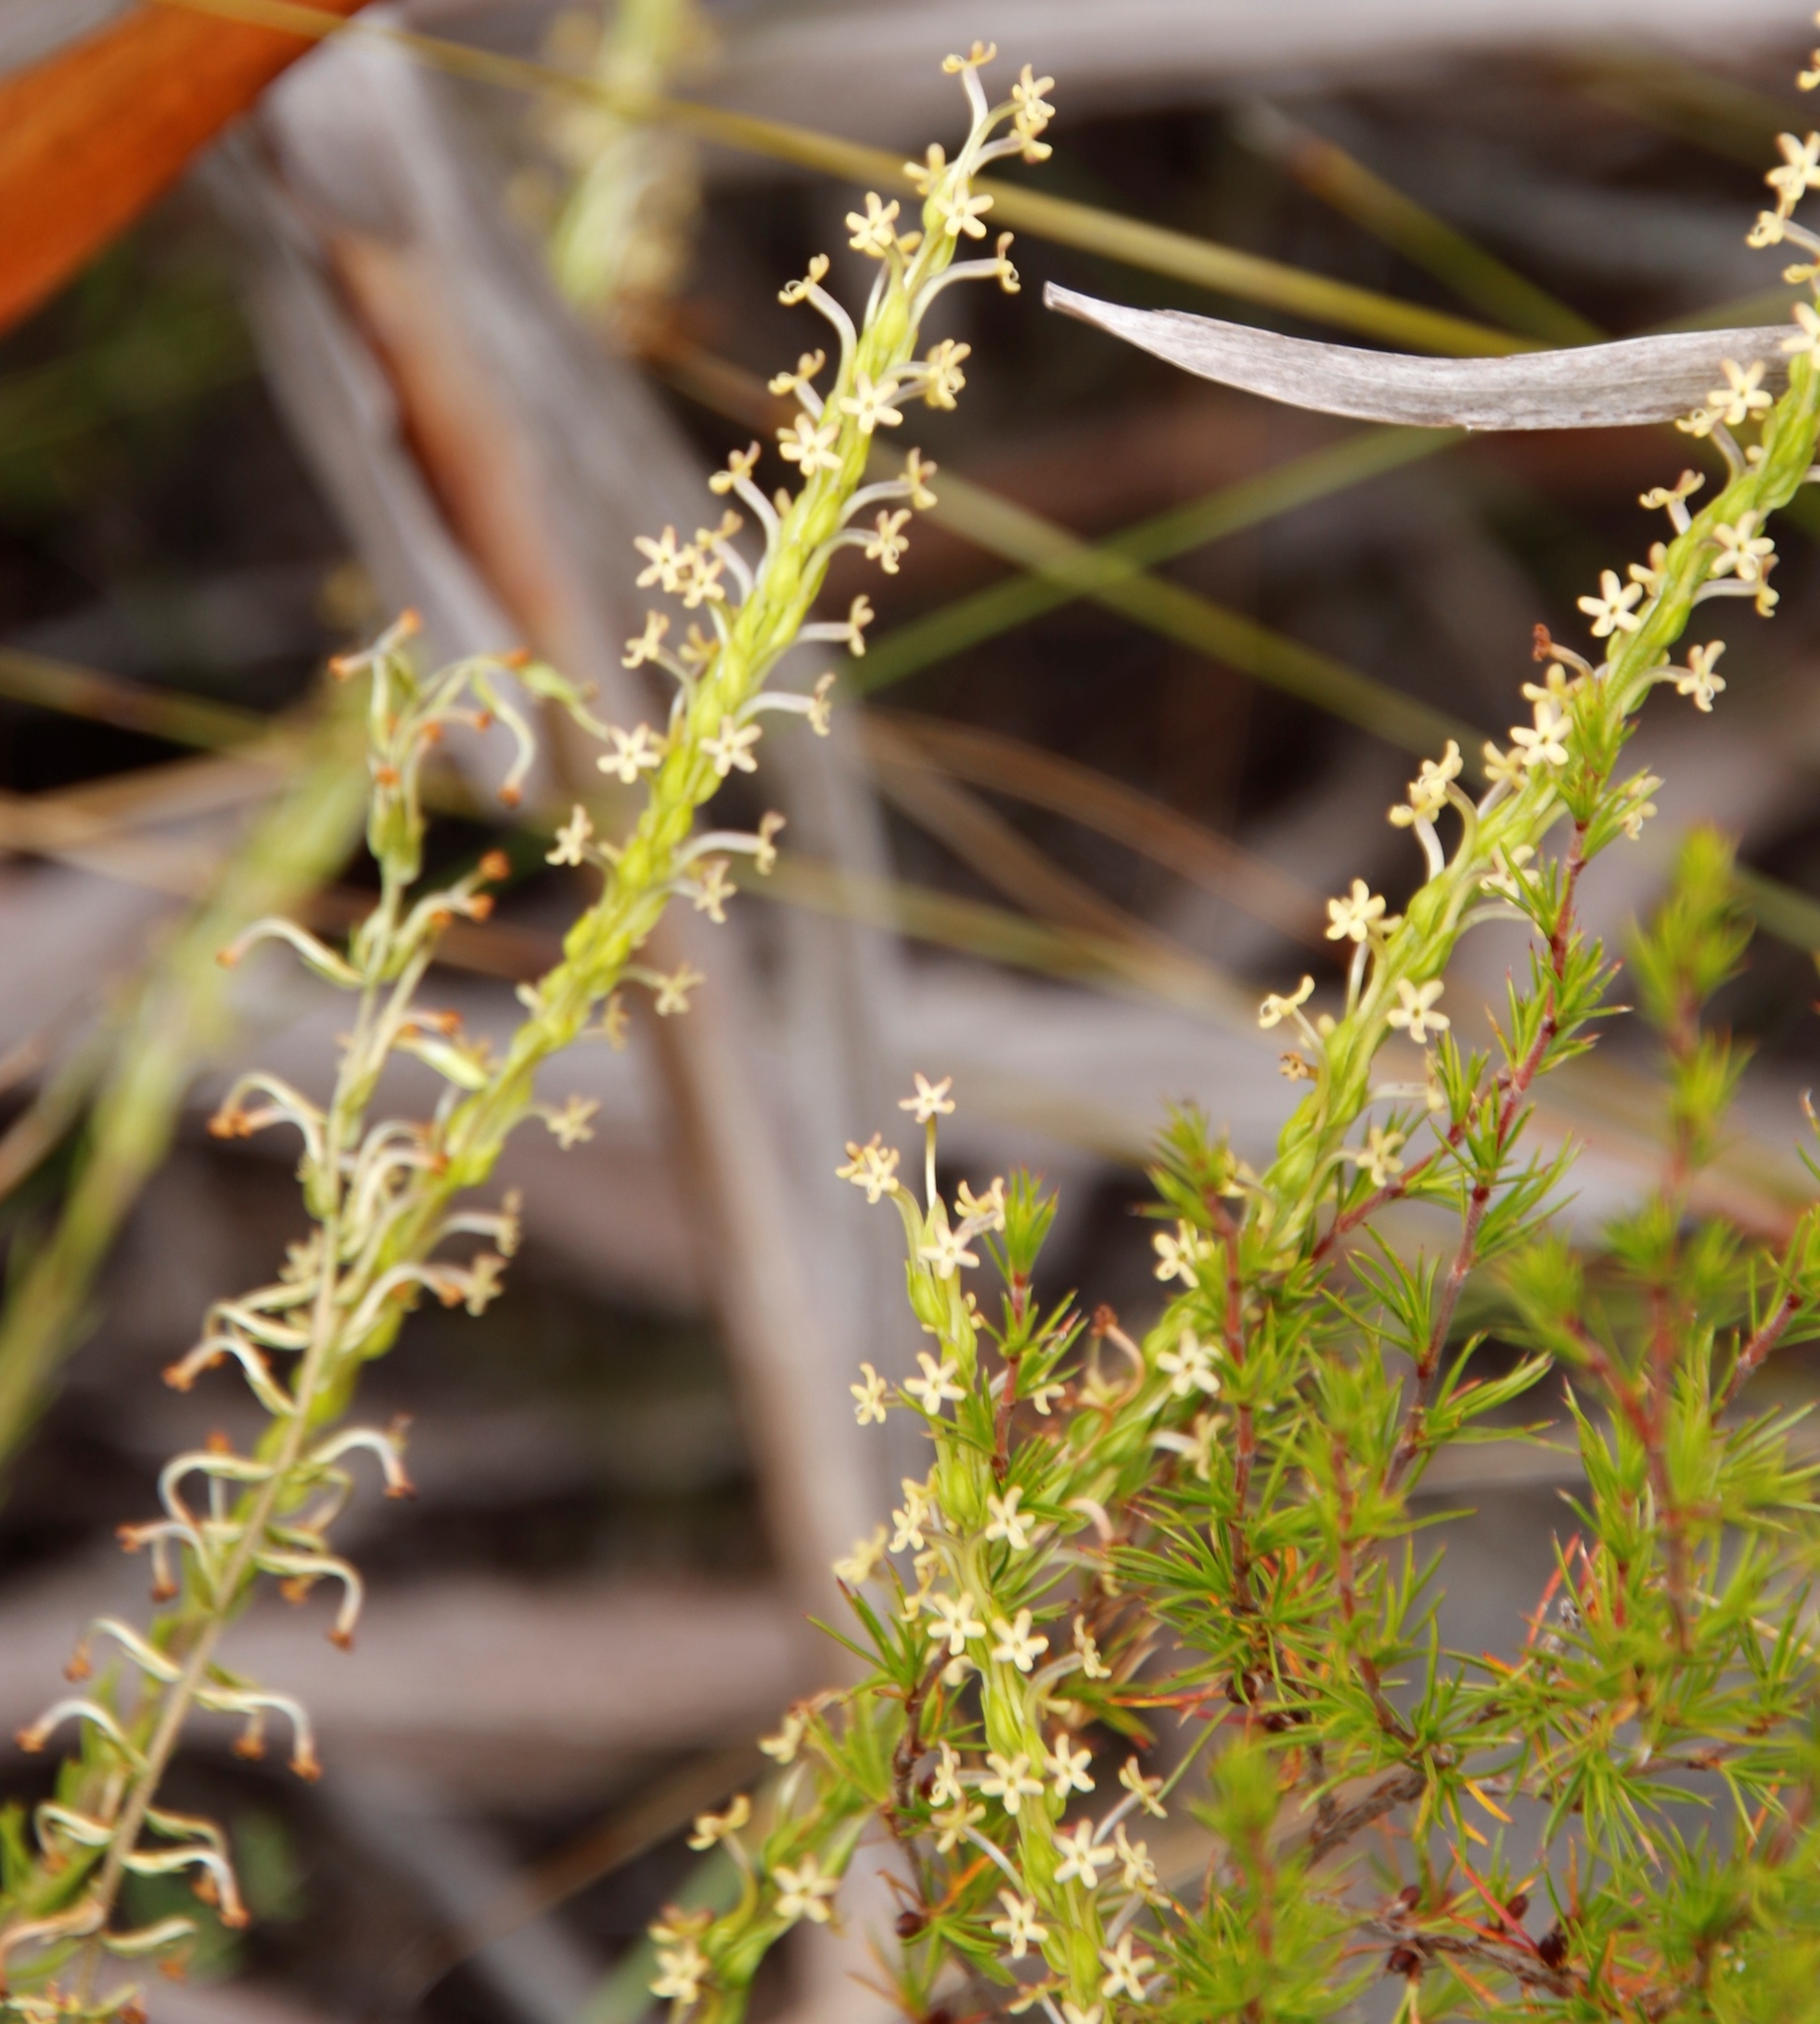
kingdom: Plantae
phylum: Tracheophyta
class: Magnoliopsida
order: Lamiales
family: Scrophulariaceae
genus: Microdon
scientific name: Microdon dubius
